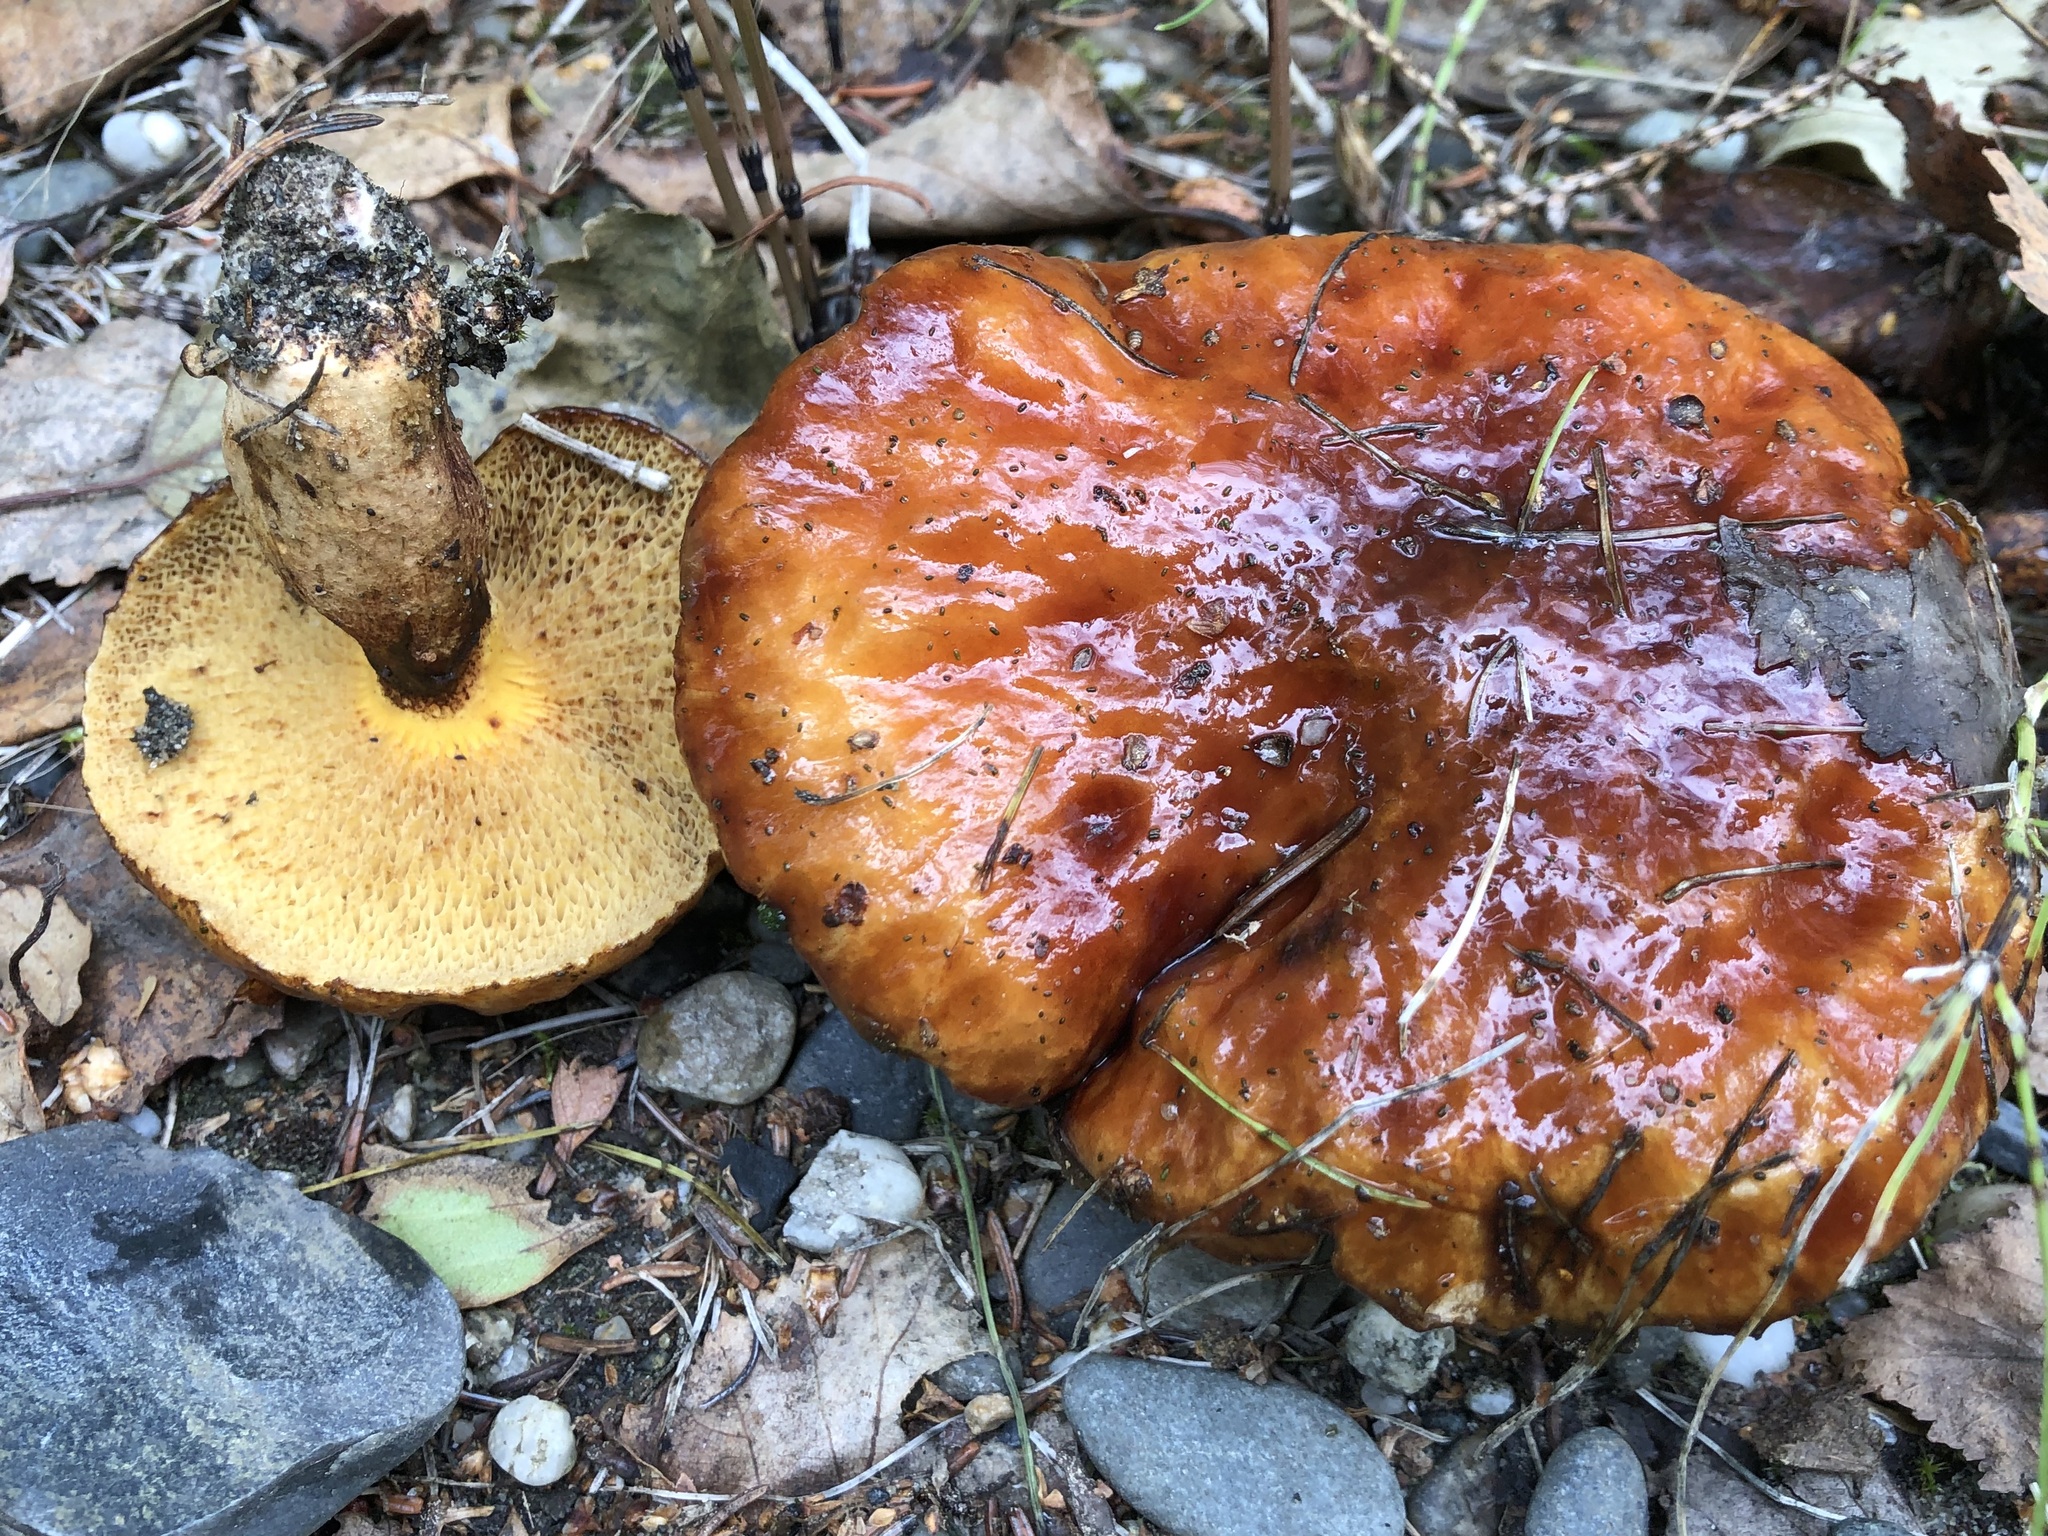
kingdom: Fungi
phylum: Basidiomycota
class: Agaricomycetes
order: Boletales
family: Suillaceae
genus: Boletinus
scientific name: Boletinus glandulosus
